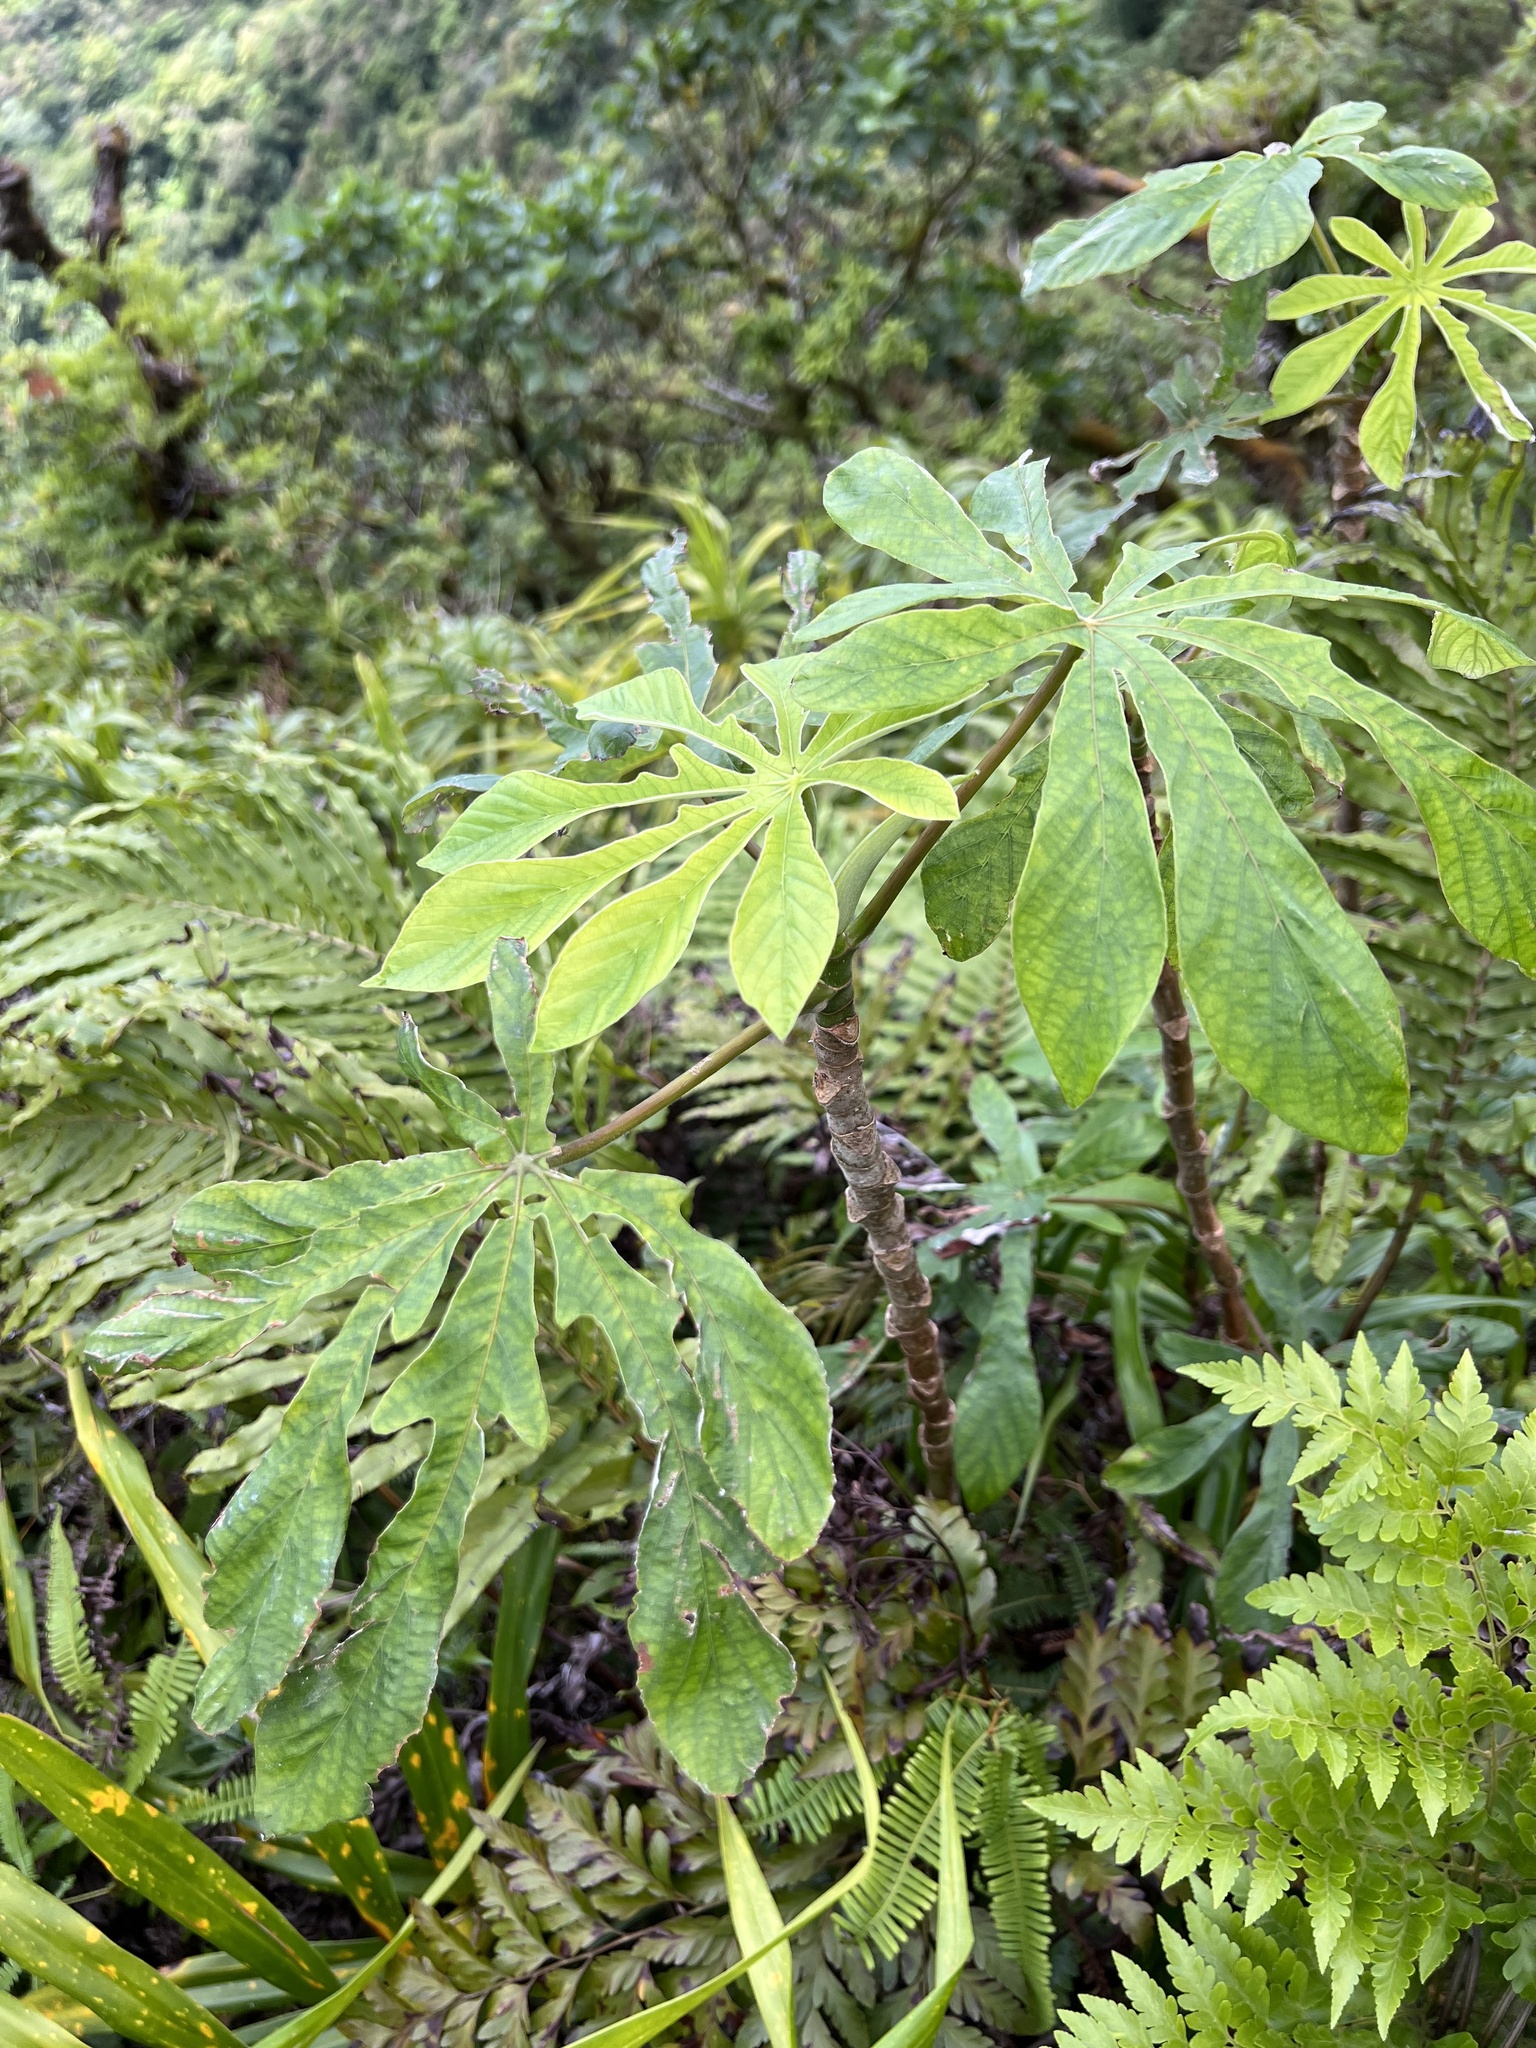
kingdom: Plantae
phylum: Tracheophyta
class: Magnoliopsida
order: Rosales
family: Urticaceae
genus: Cecropia
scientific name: Cecropia pachystachya
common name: Ambay pumpwood
